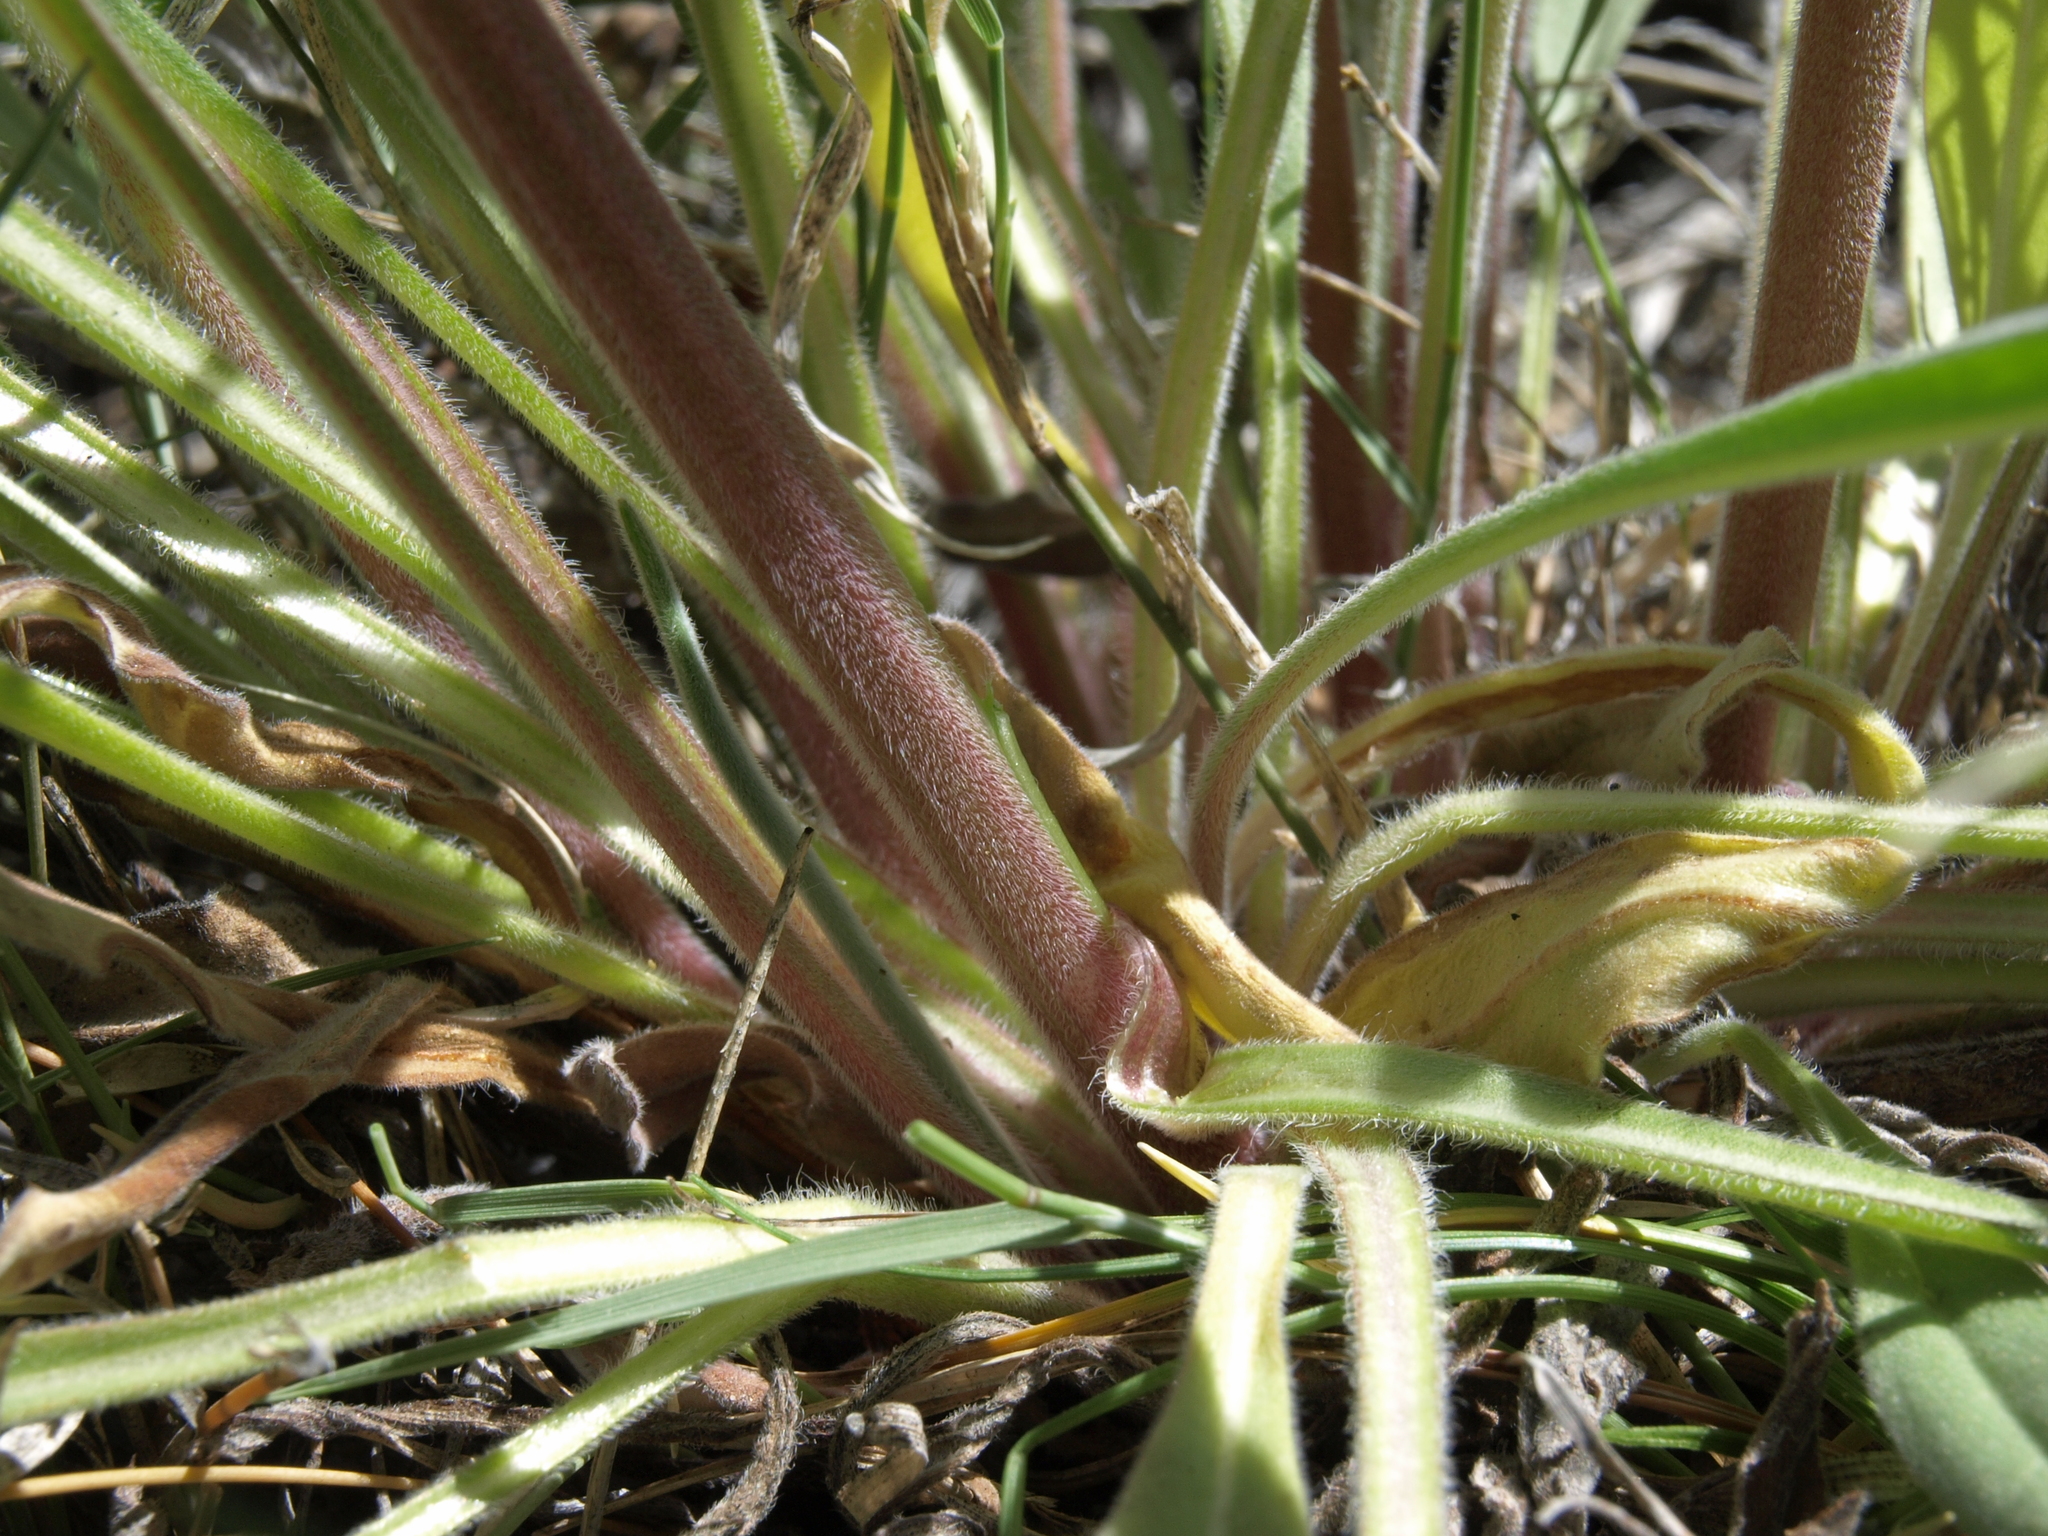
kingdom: Plantae
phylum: Tracheophyta
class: Magnoliopsida
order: Boraginales
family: Boraginaceae
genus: Hackelia
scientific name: Hackelia brevicula
